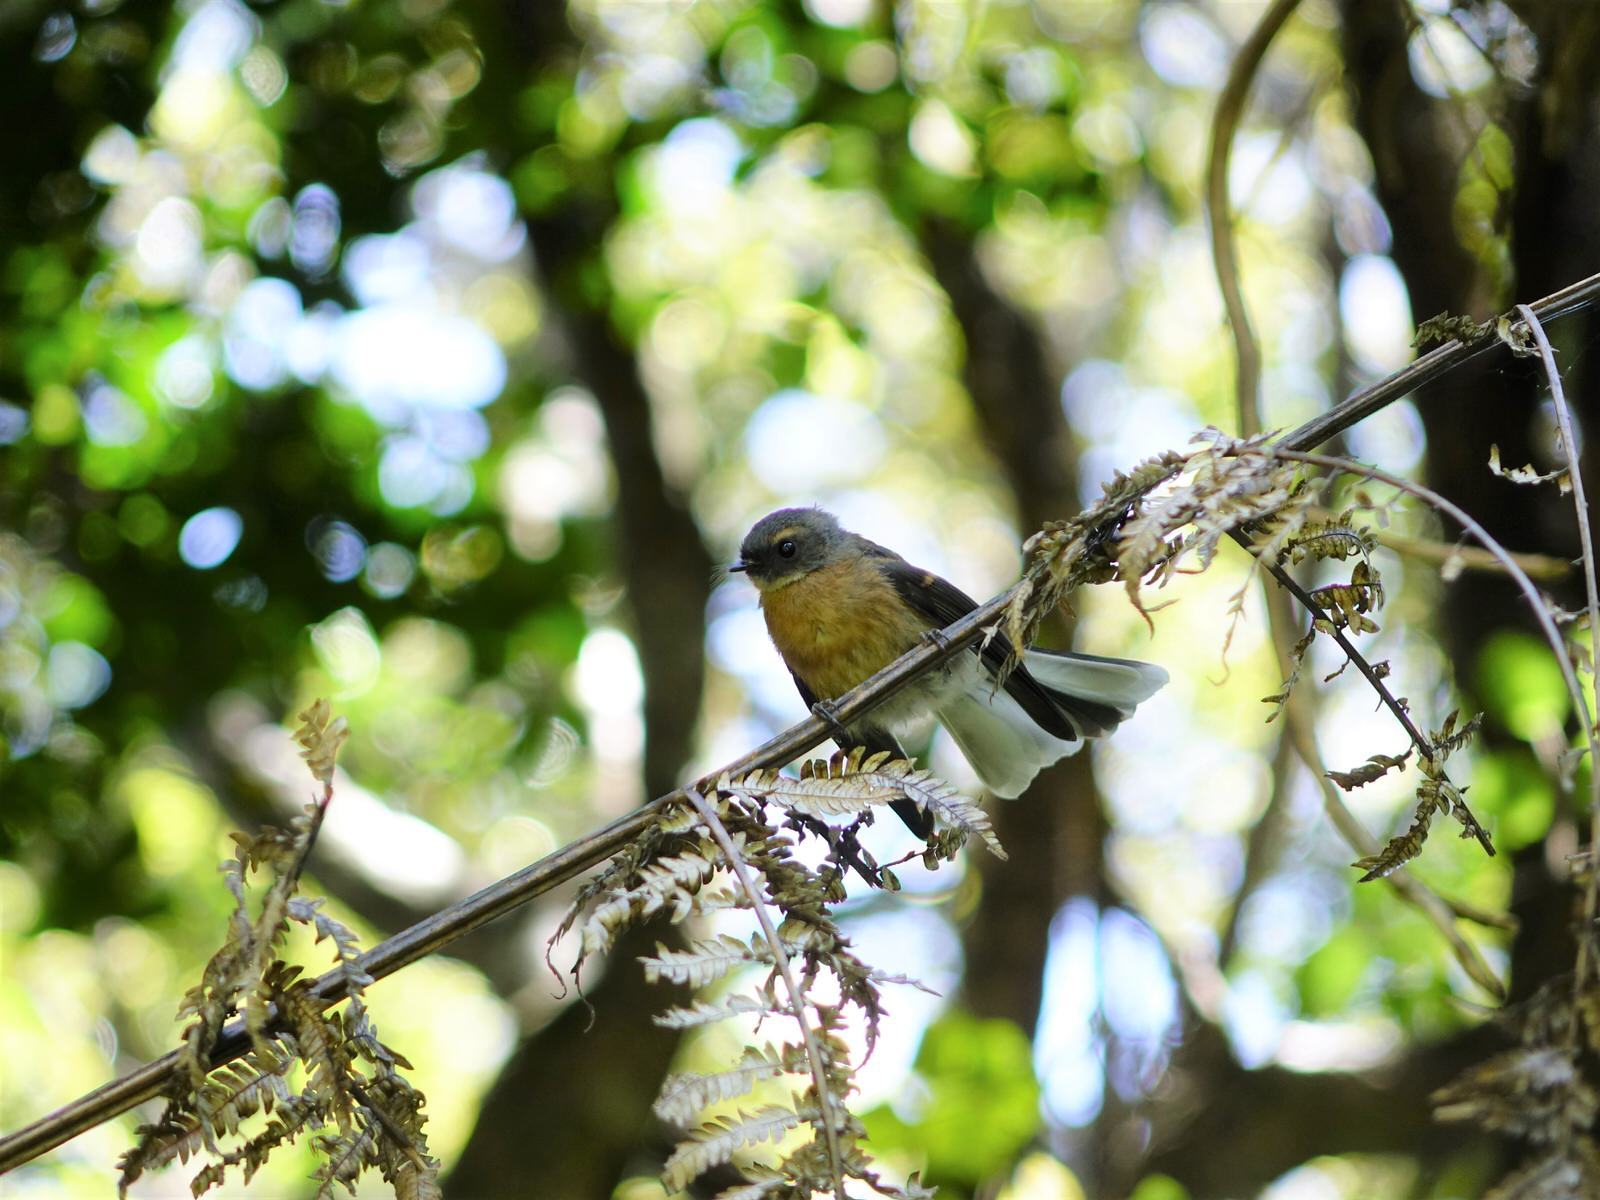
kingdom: Animalia
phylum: Chordata
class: Aves
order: Passeriformes
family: Rhipiduridae
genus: Rhipidura
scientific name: Rhipidura fuliginosa
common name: New zealand fantail
